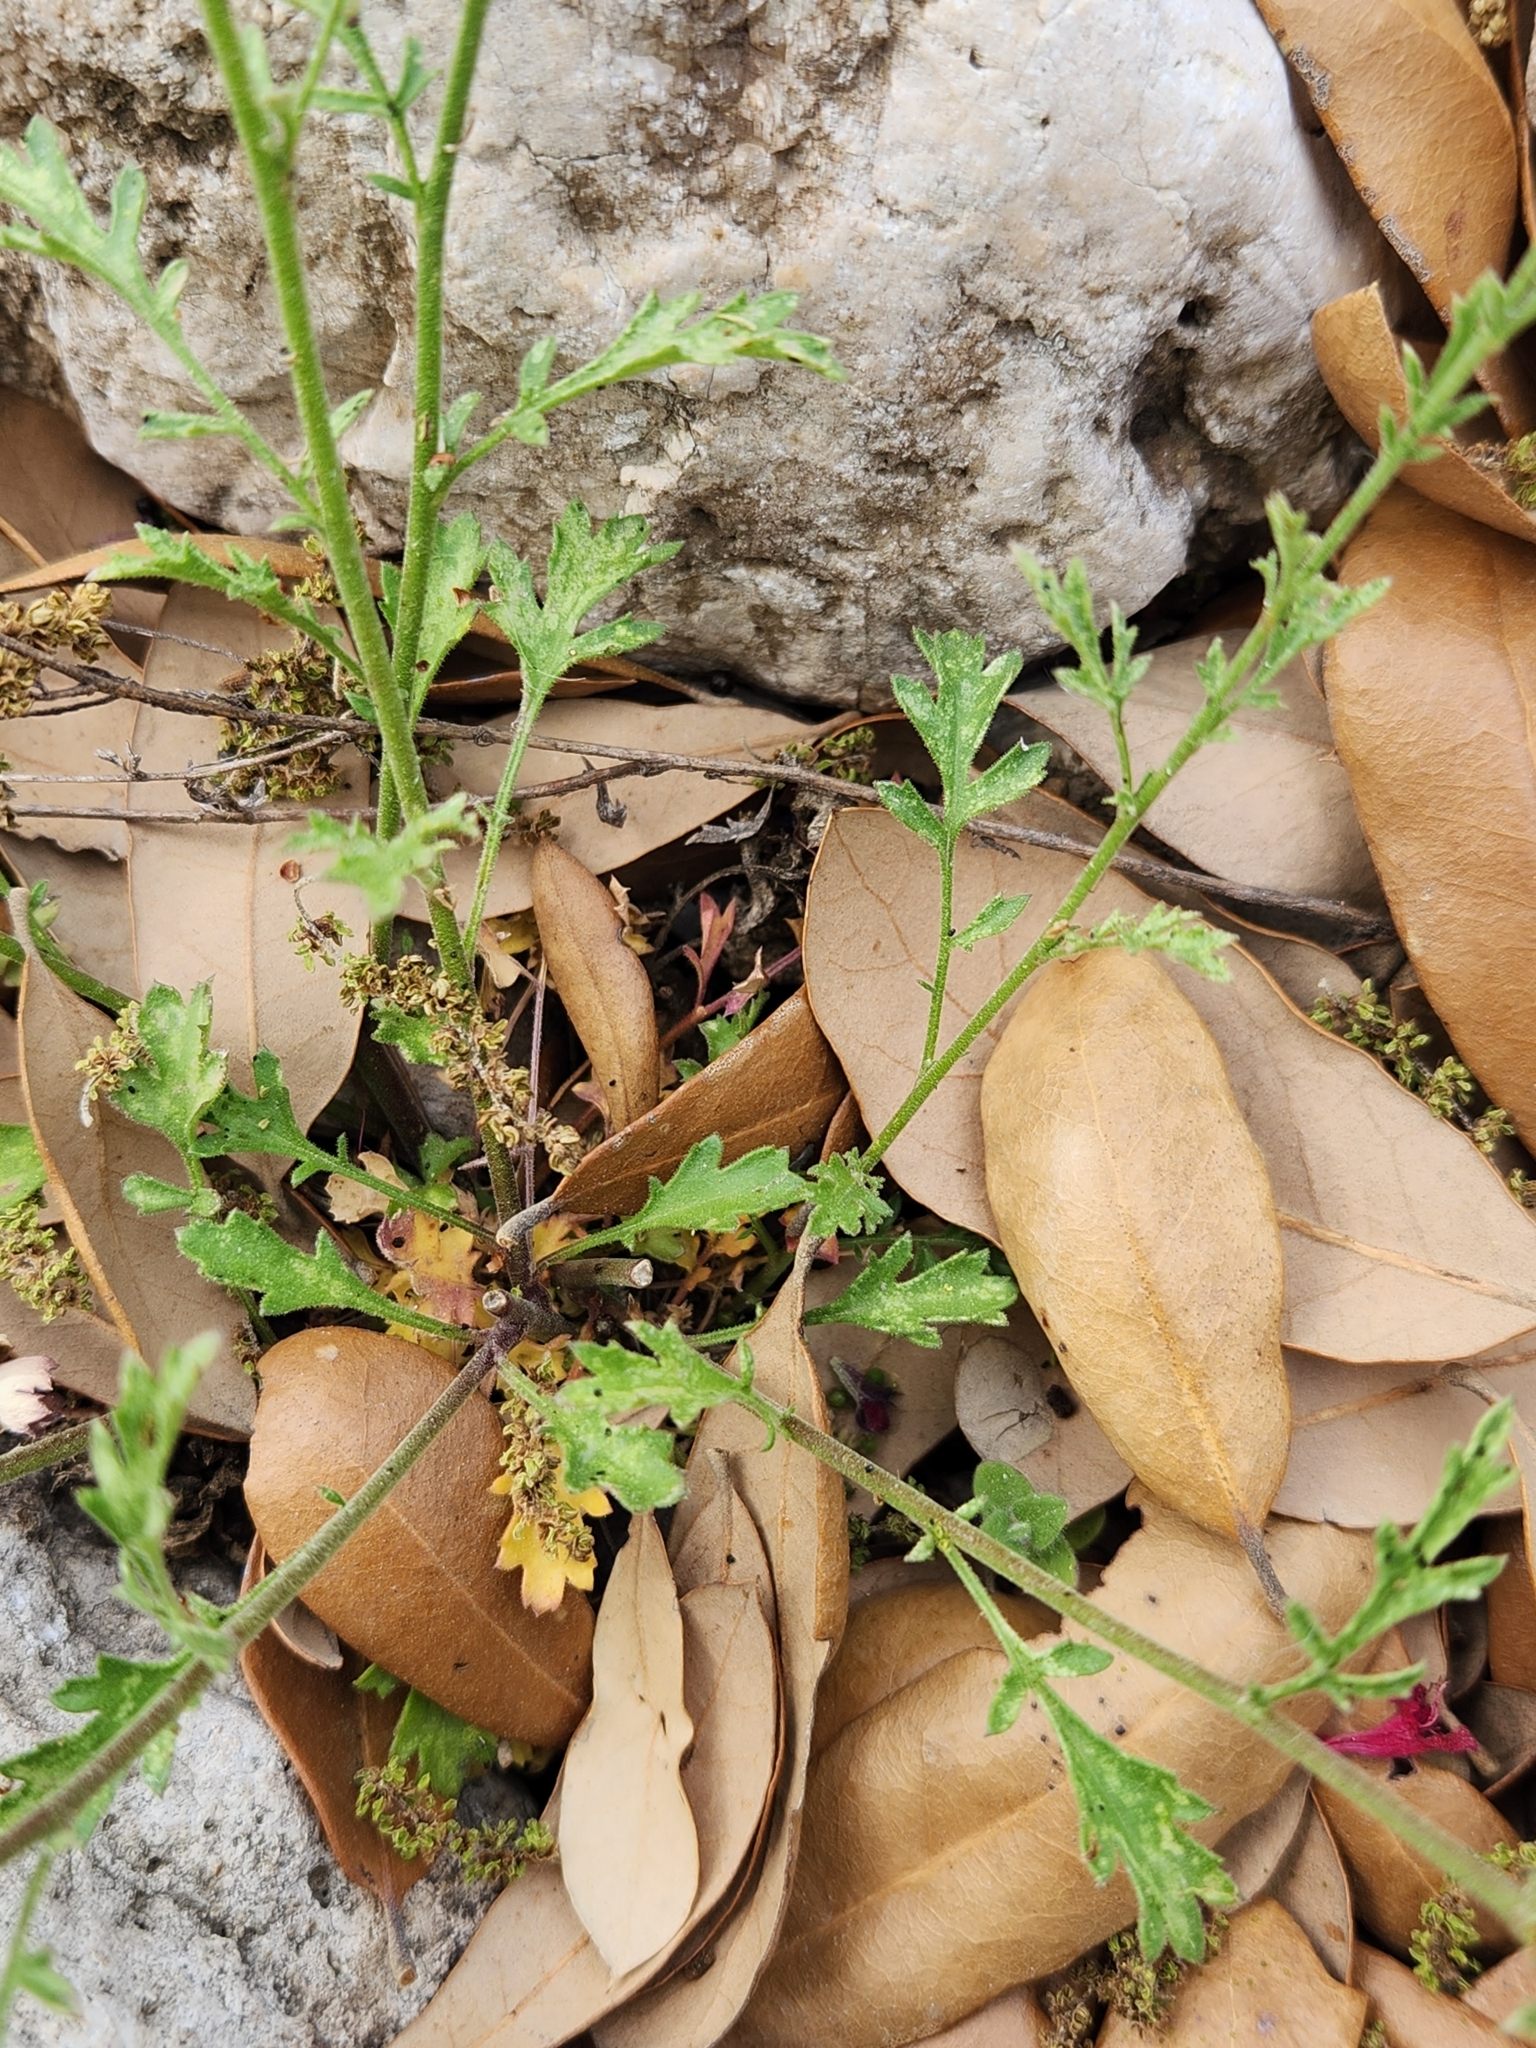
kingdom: Plantae
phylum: Tracheophyta
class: Magnoliopsida
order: Ericales
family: Polemoniaceae
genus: Giliastrum
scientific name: Giliastrum incisum
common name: Splitleaf gilia
